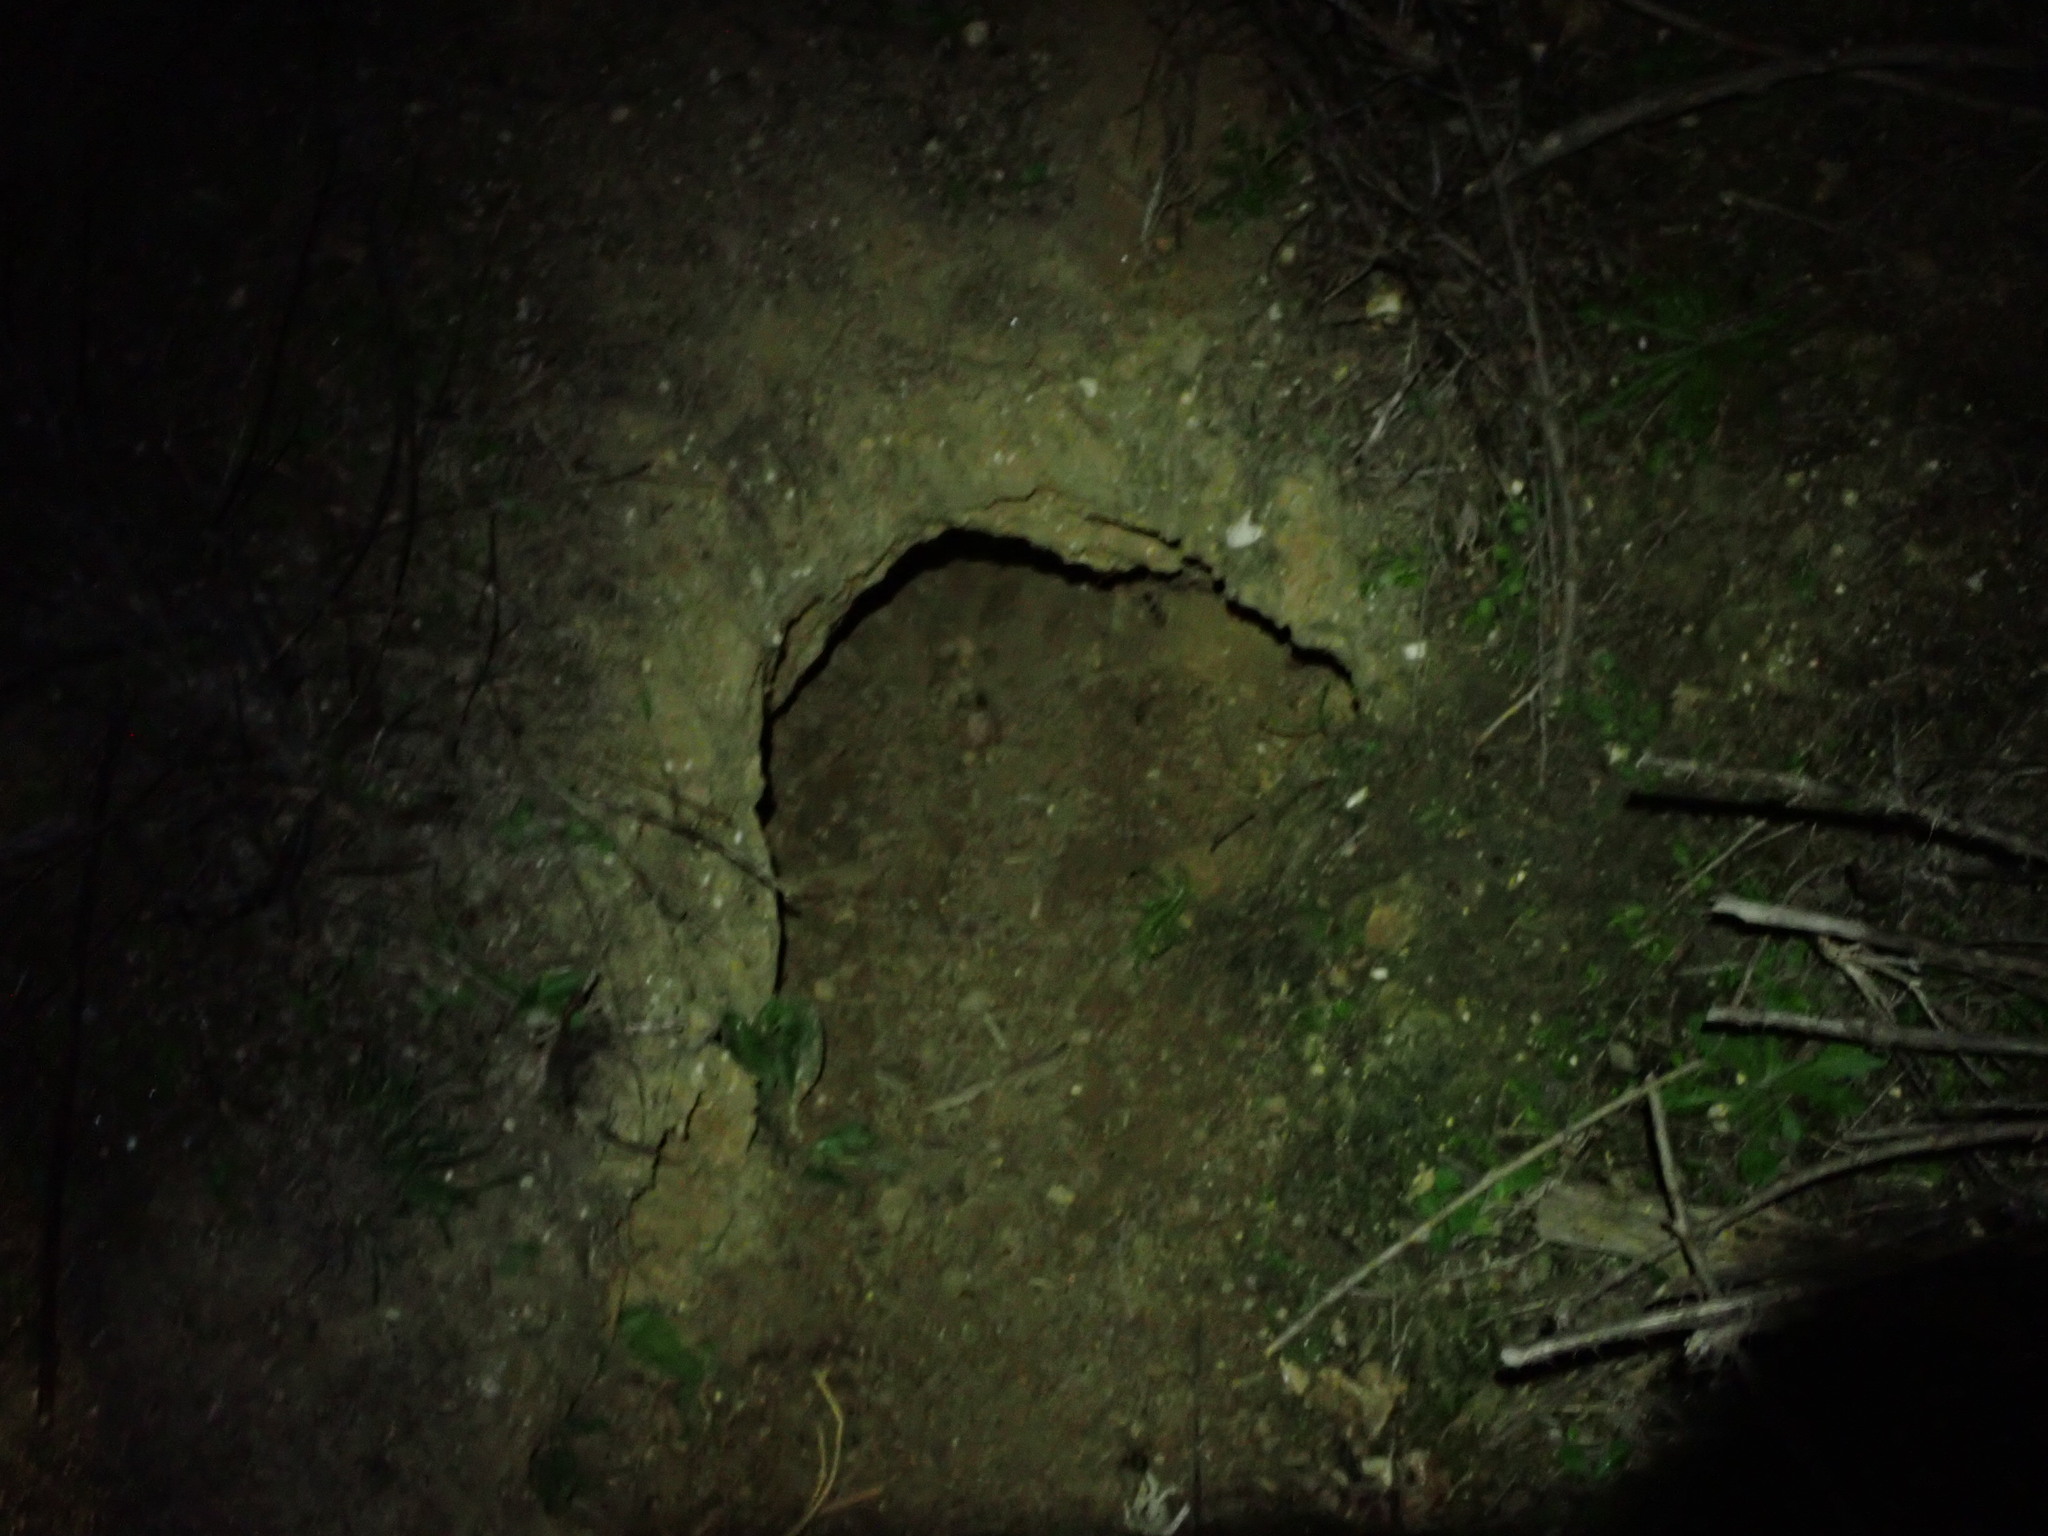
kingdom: Animalia
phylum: Chordata
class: Mammalia
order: Lagomorpha
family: Leporidae
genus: Oryctolagus
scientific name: Oryctolagus cuniculus
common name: European rabbit
